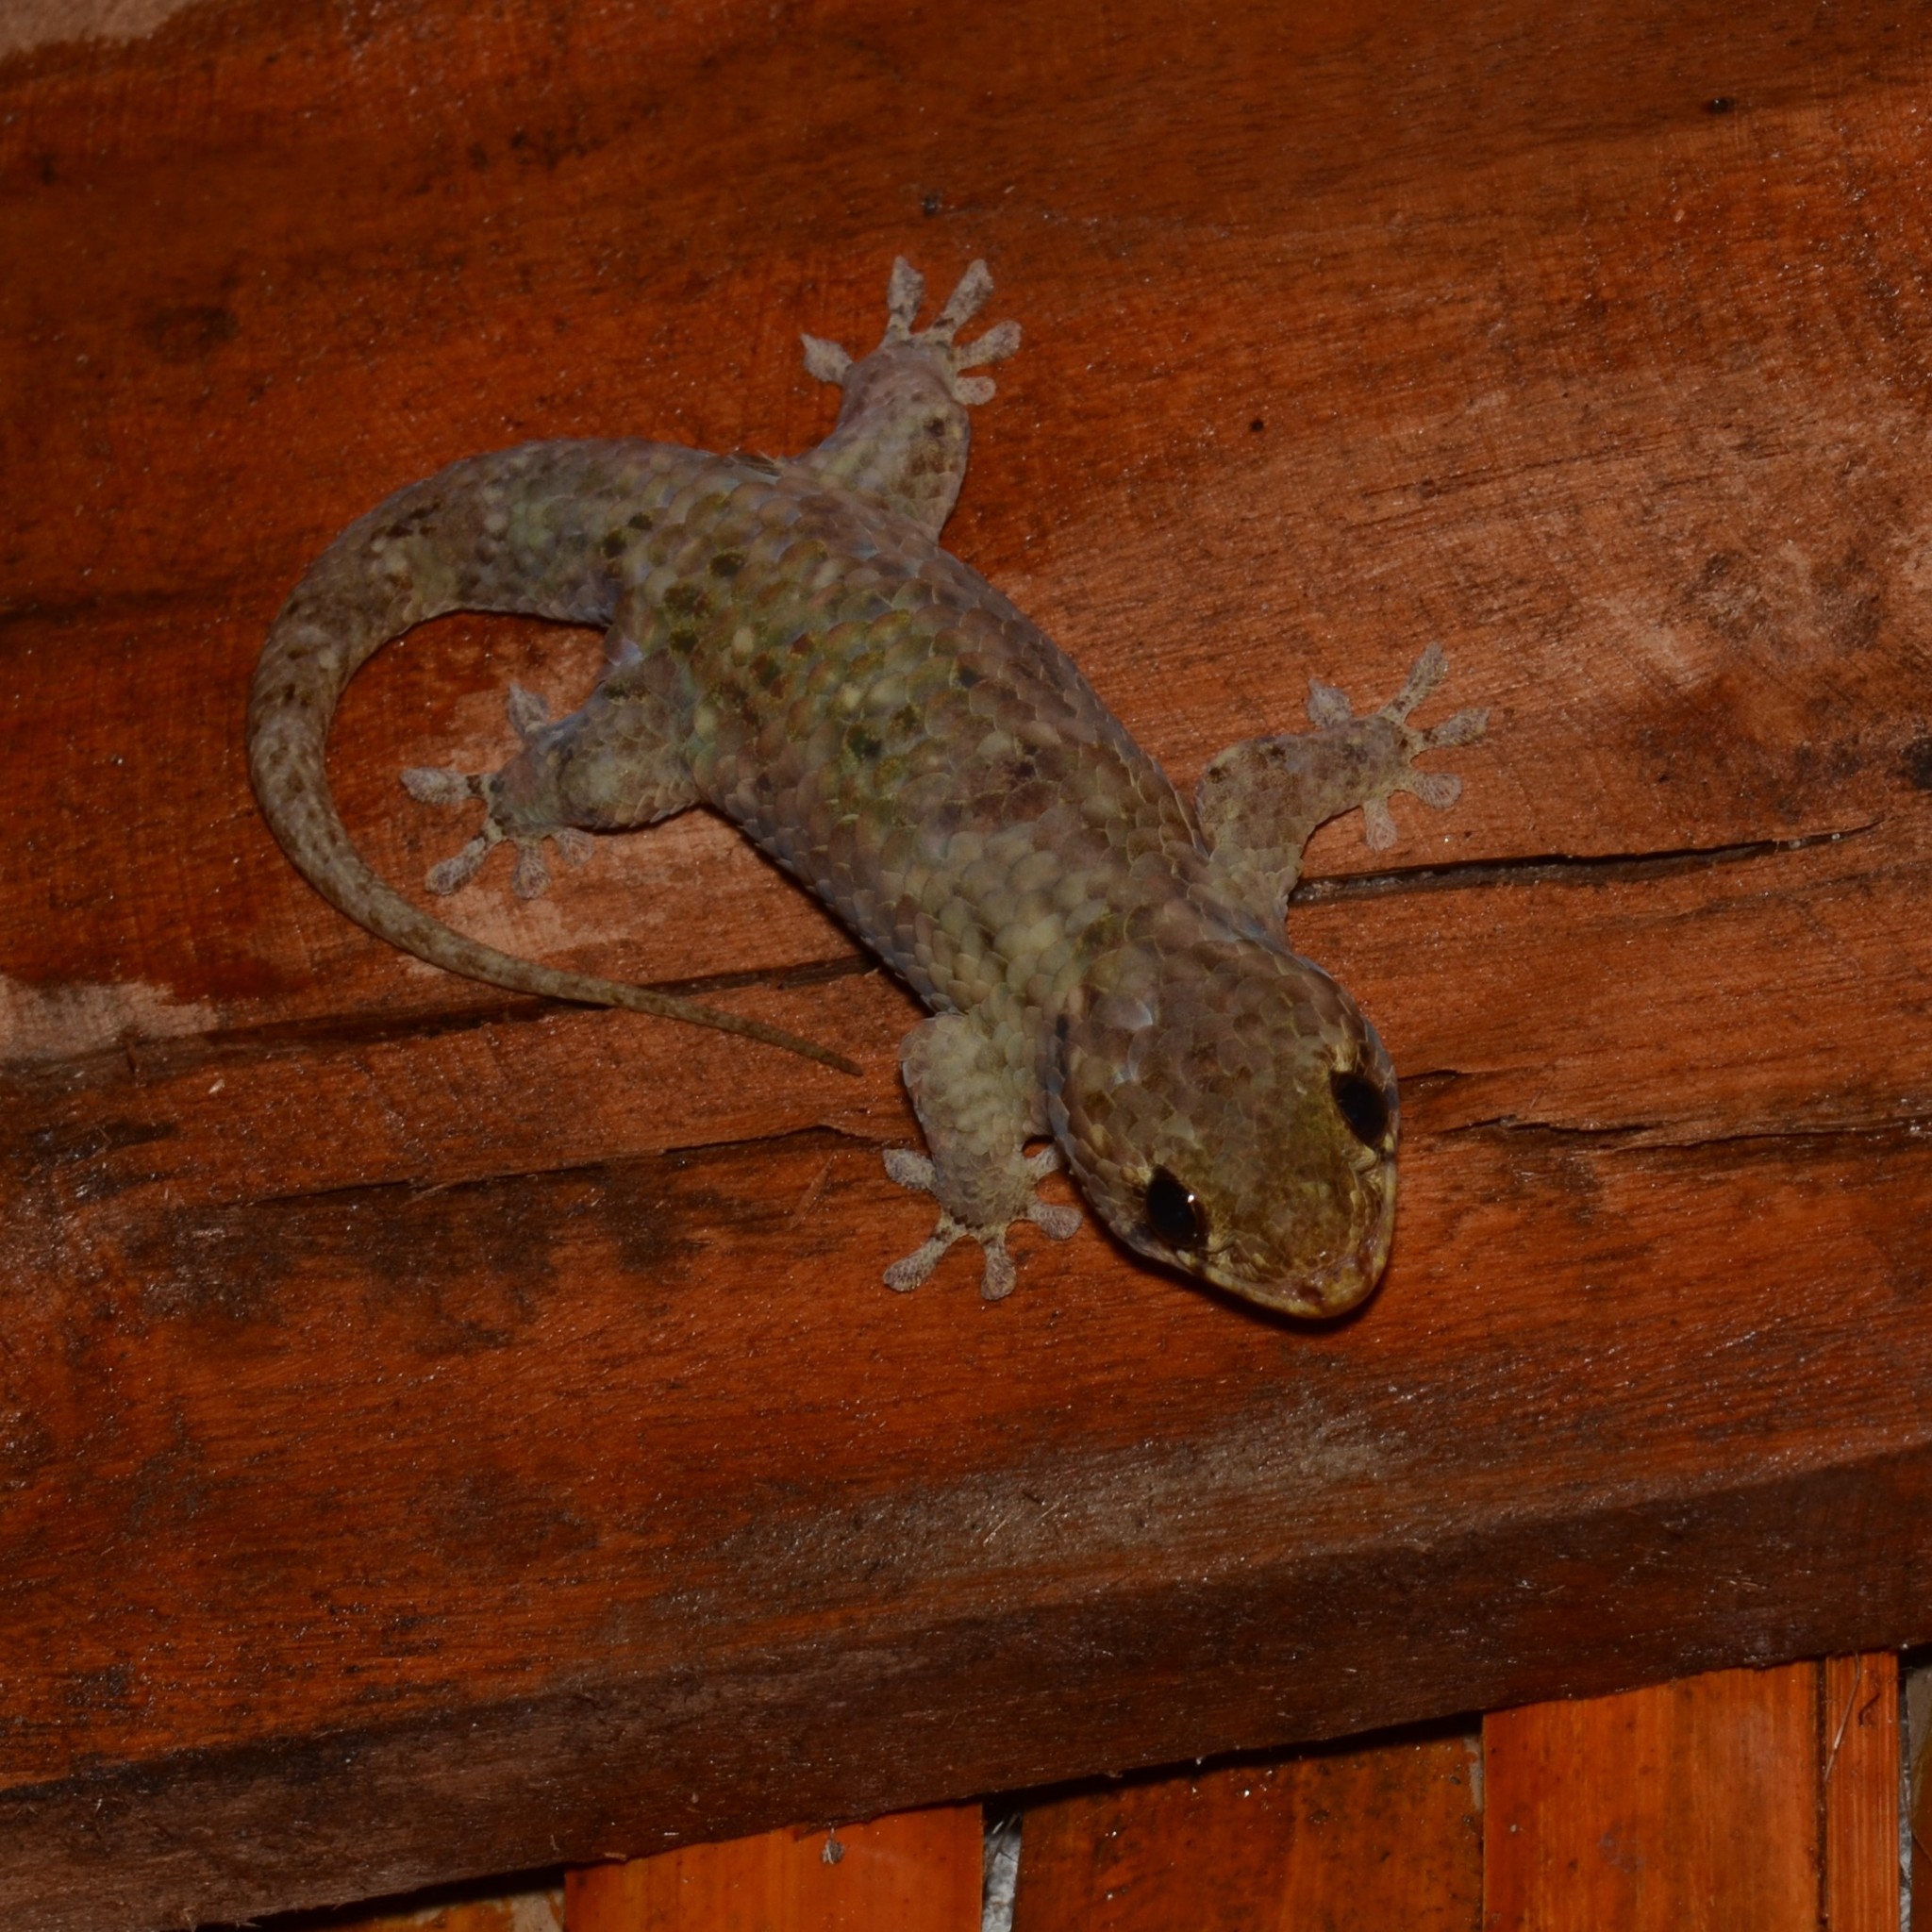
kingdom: Animalia
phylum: Chordata
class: Squamata
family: Gekkonidae
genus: Geckolepis
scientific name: Geckolepis maculata
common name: Peters' spotted gecko
